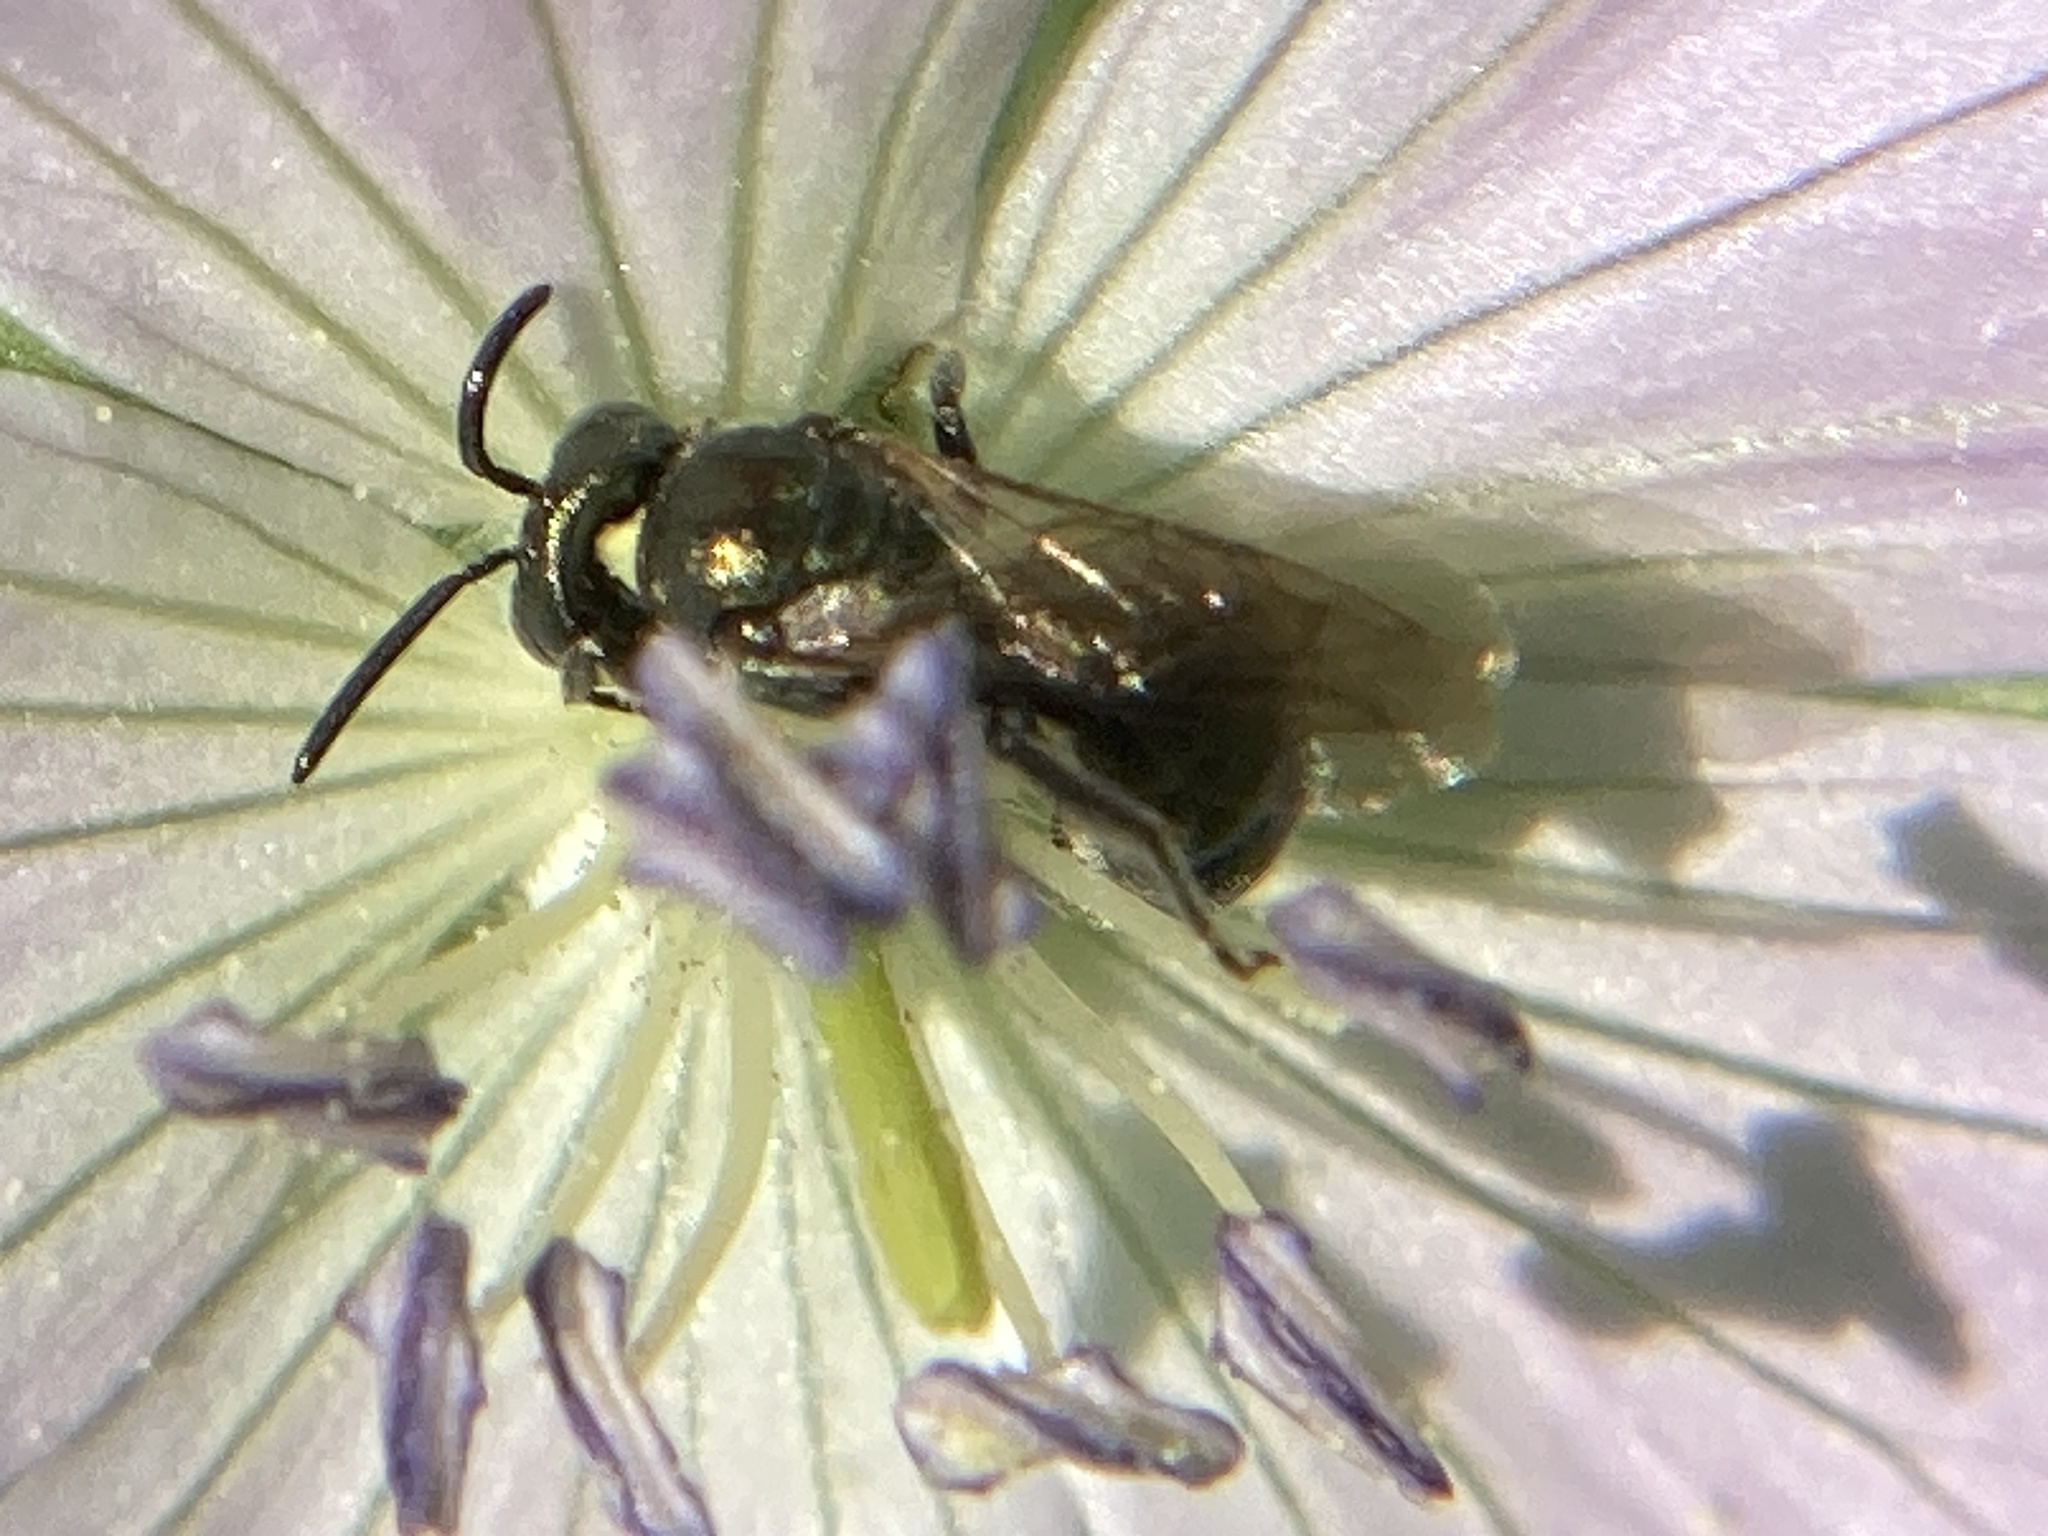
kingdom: Animalia
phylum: Arthropoda
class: Insecta
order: Hymenoptera
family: Apidae
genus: Zadontomerus
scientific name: Zadontomerus
